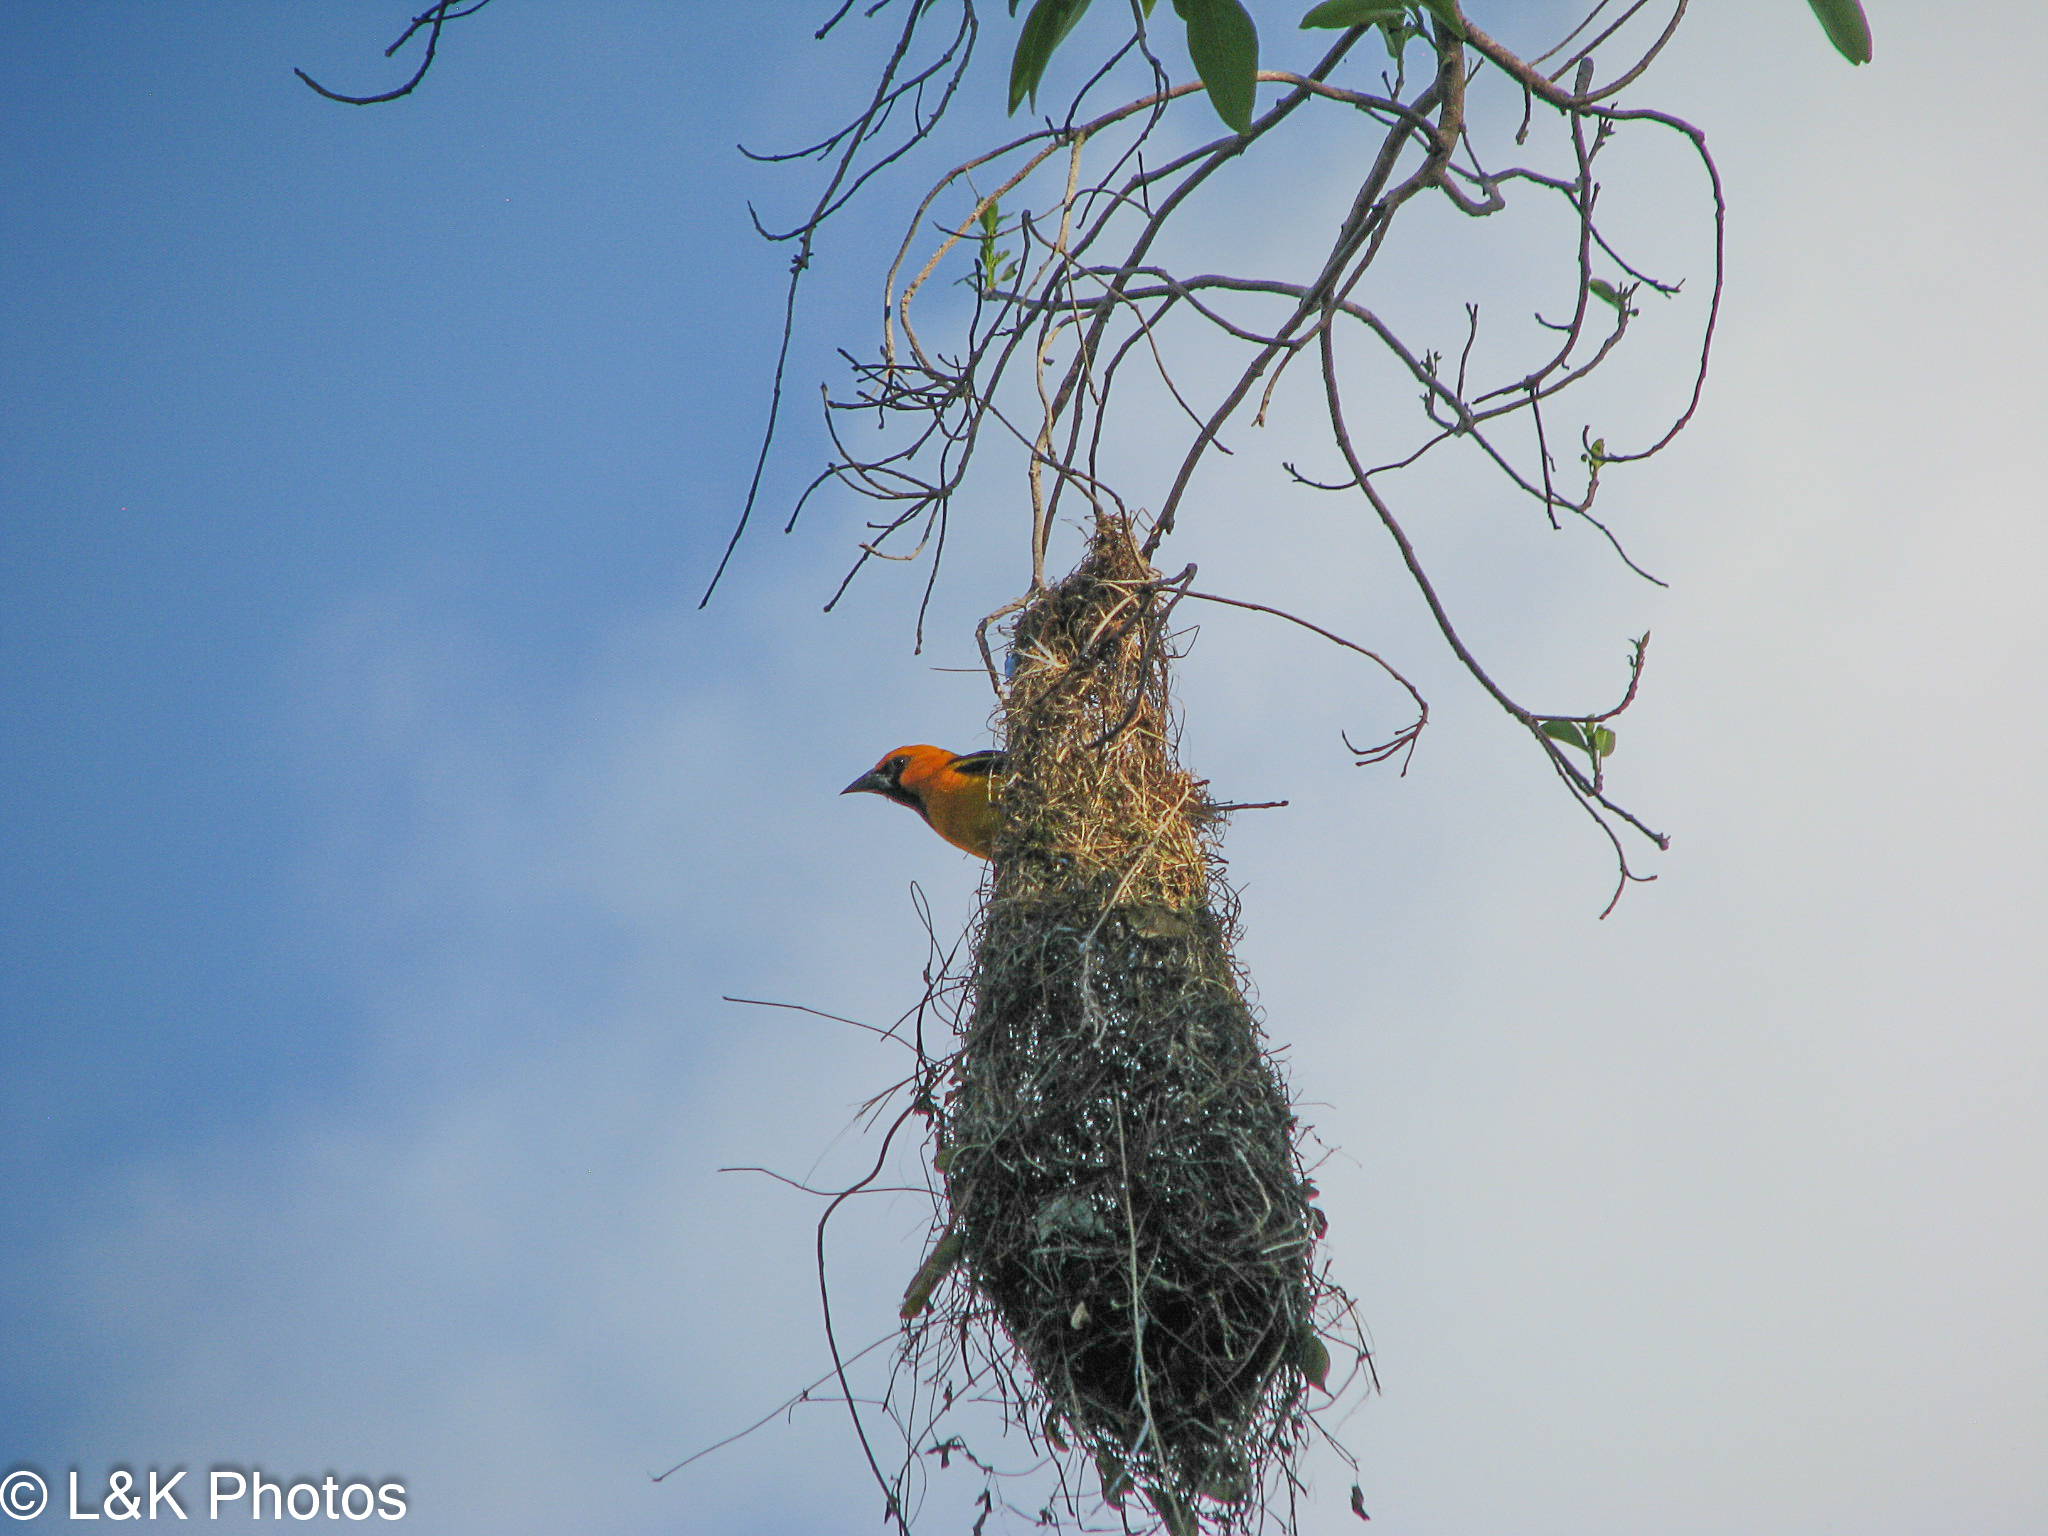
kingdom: Animalia
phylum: Chordata
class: Aves
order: Passeriformes
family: Icteridae
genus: Icterus
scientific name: Icterus gularis
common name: Altamira oriole
